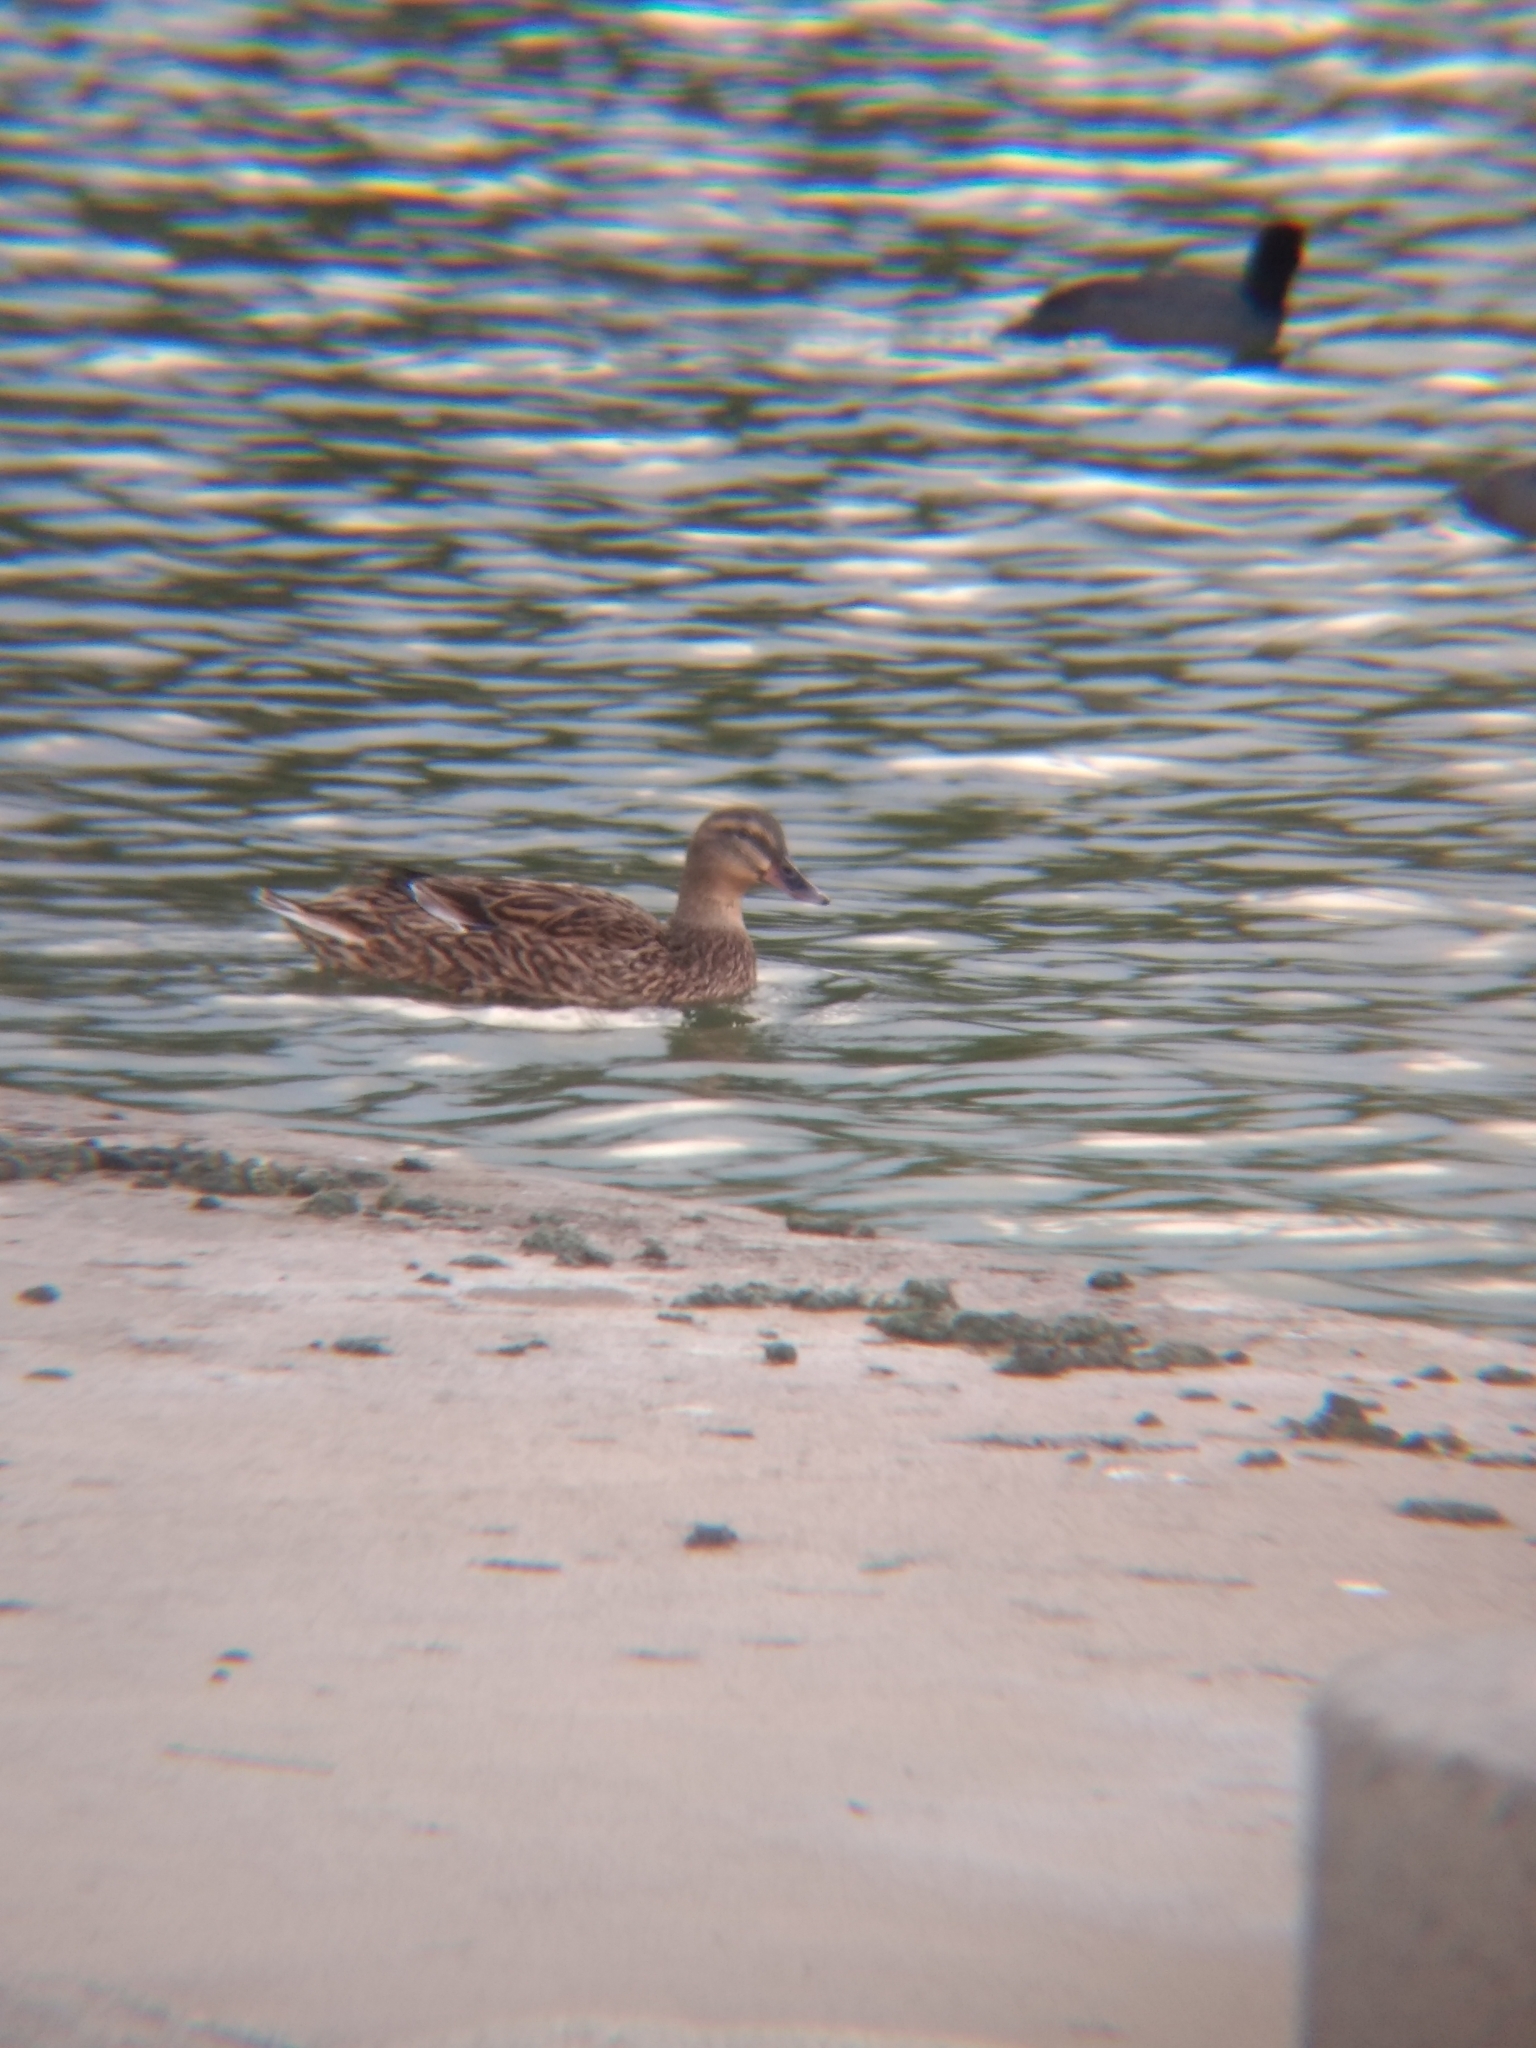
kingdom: Animalia
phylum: Chordata
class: Aves
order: Anseriformes
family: Anatidae
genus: Anas
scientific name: Anas platyrhynchos
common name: Mallard
